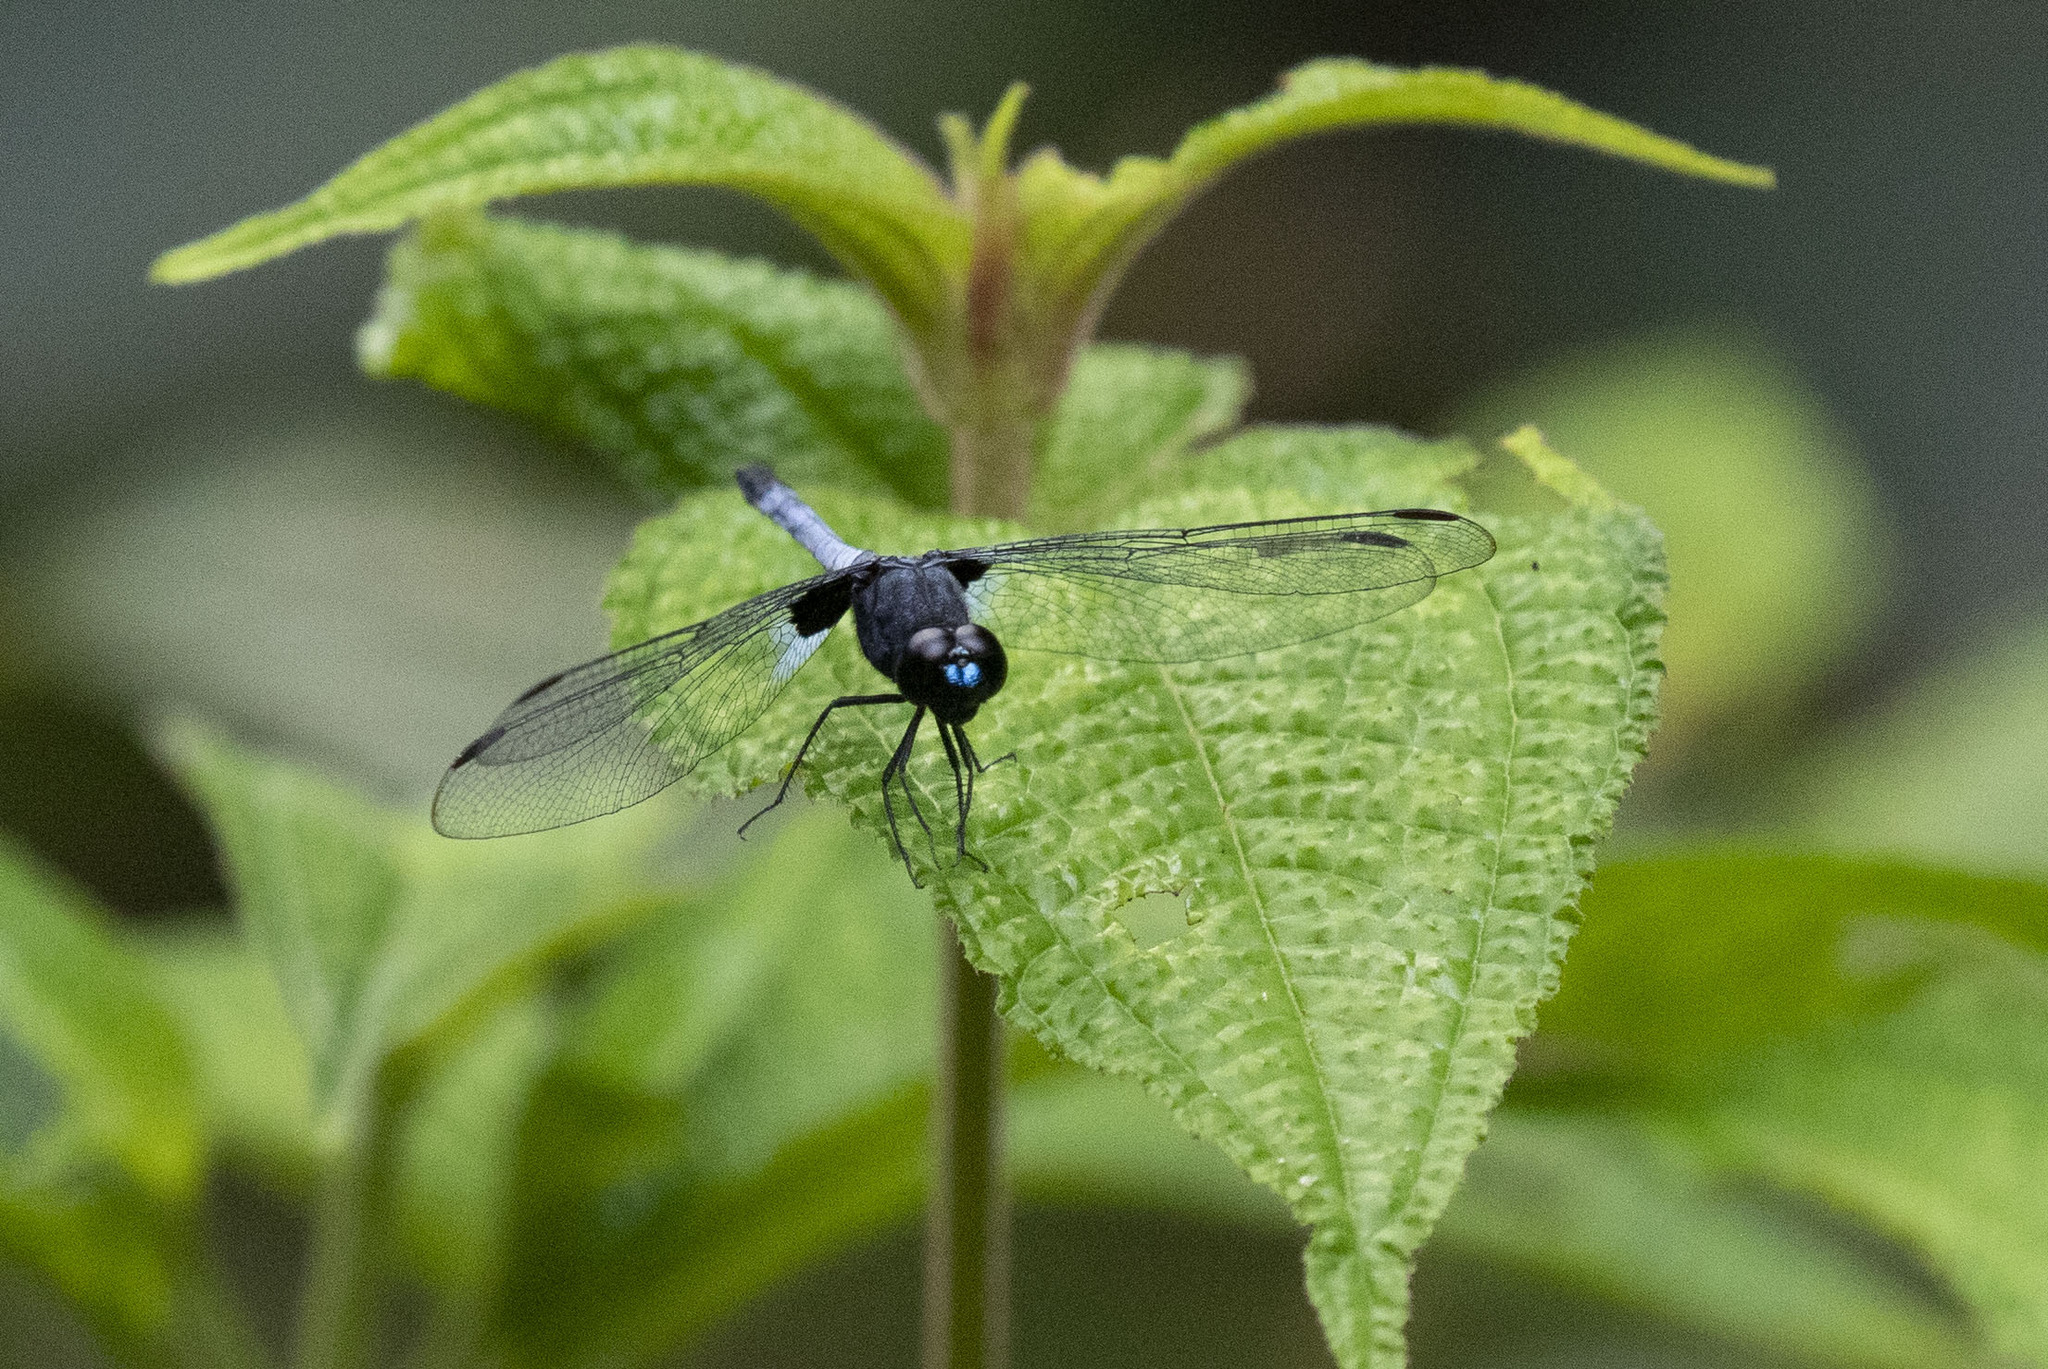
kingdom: Animalia
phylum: Arthropoda
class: Insecta
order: Odonata
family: Libellulidae
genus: Erythrodiplax
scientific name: Erythrodiplax laurentia
